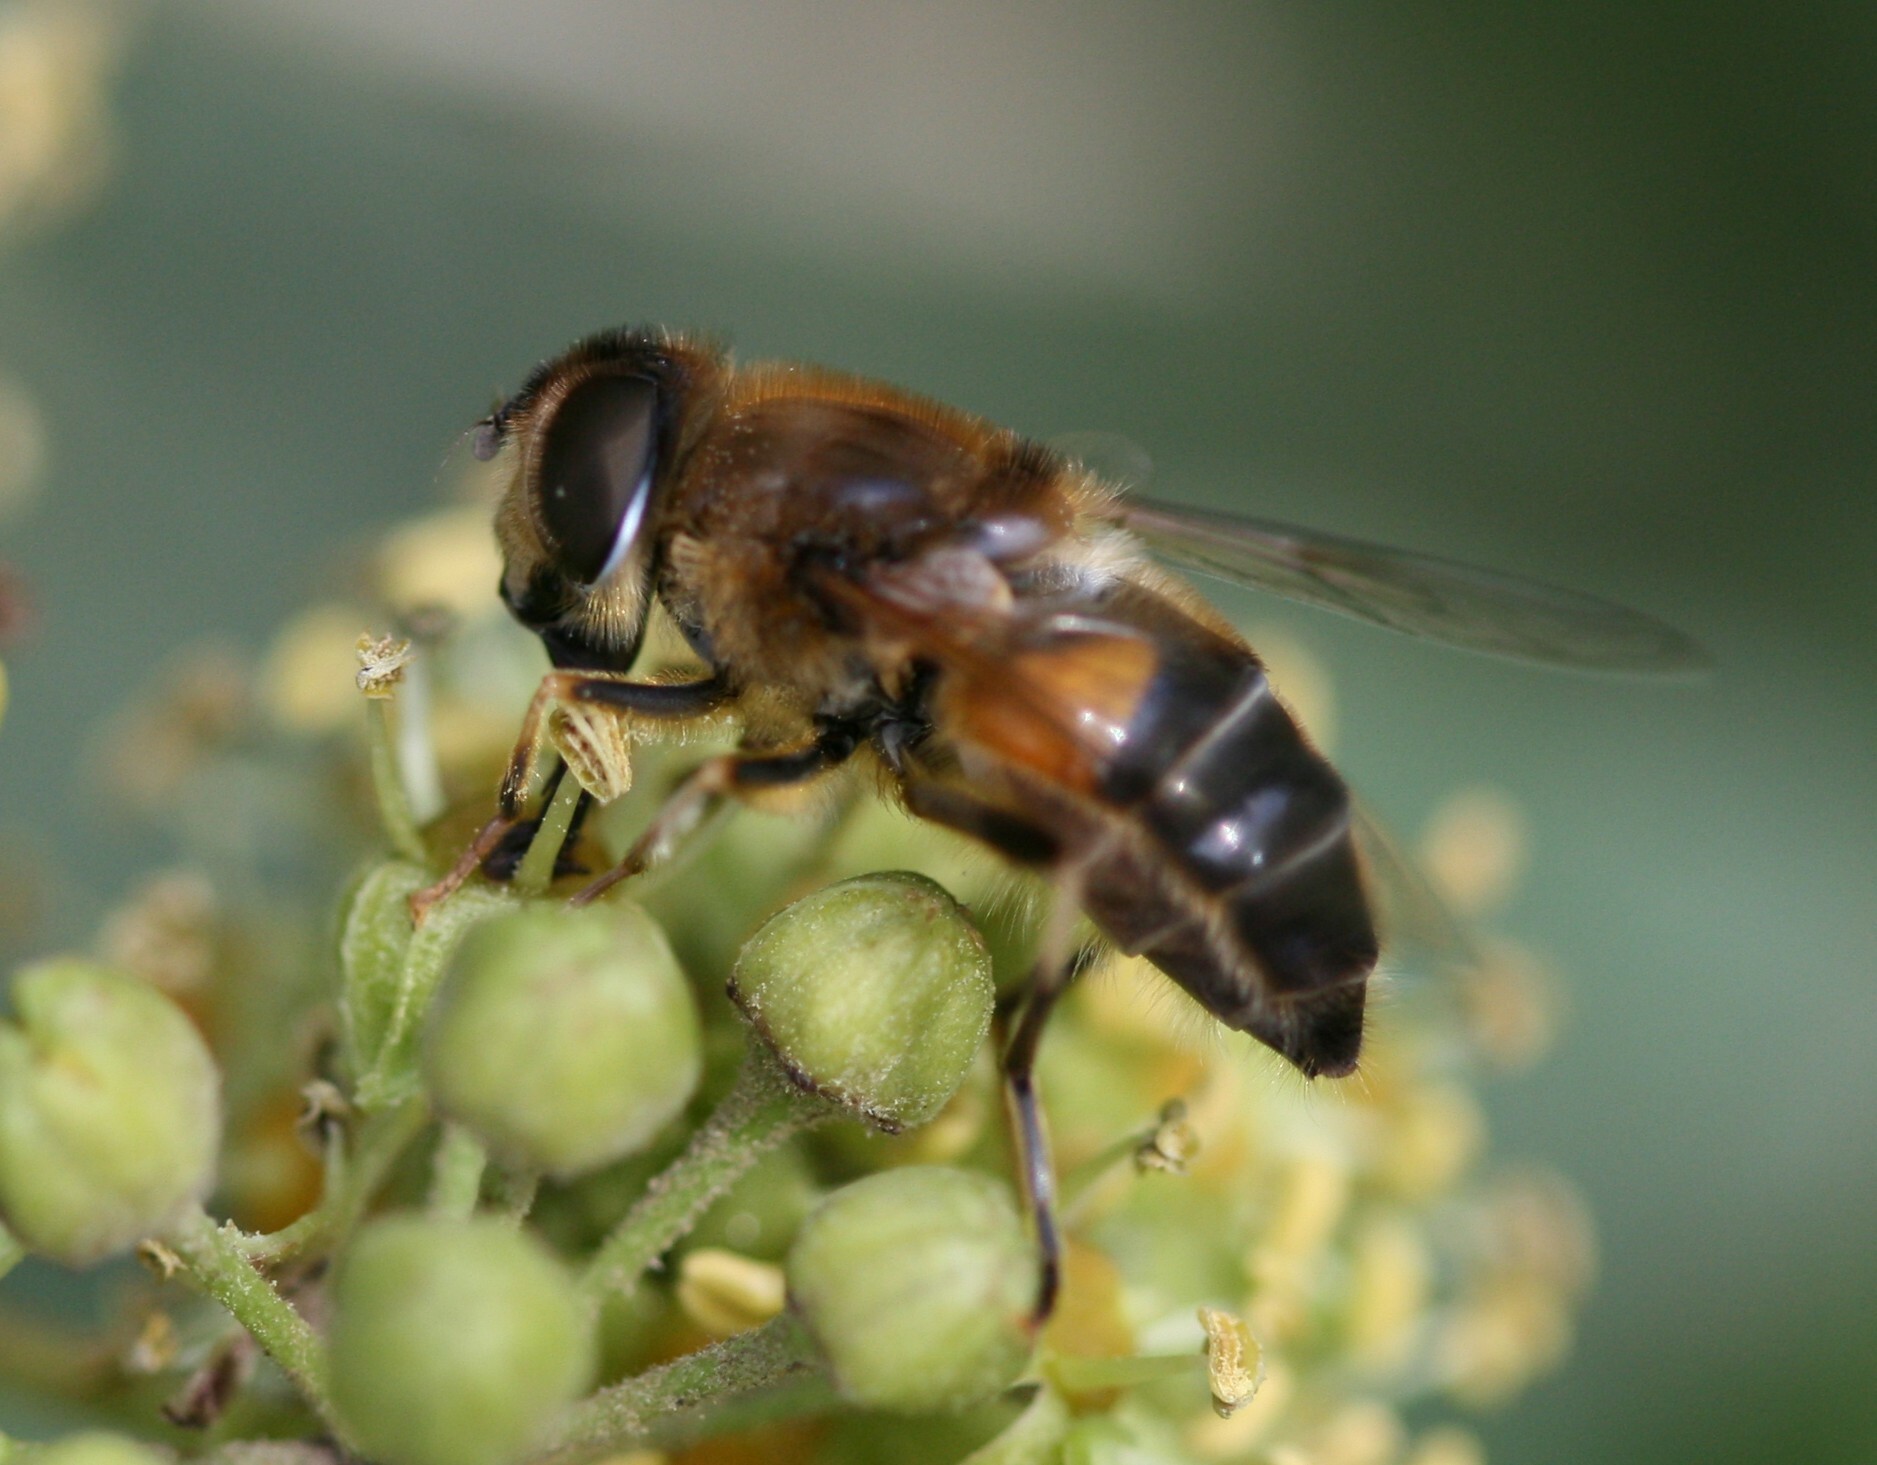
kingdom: Animalia
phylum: Arthropoda
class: Insecta
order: Diptera
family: Syrphidae
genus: Eristalis
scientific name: Eristalis pertinax
